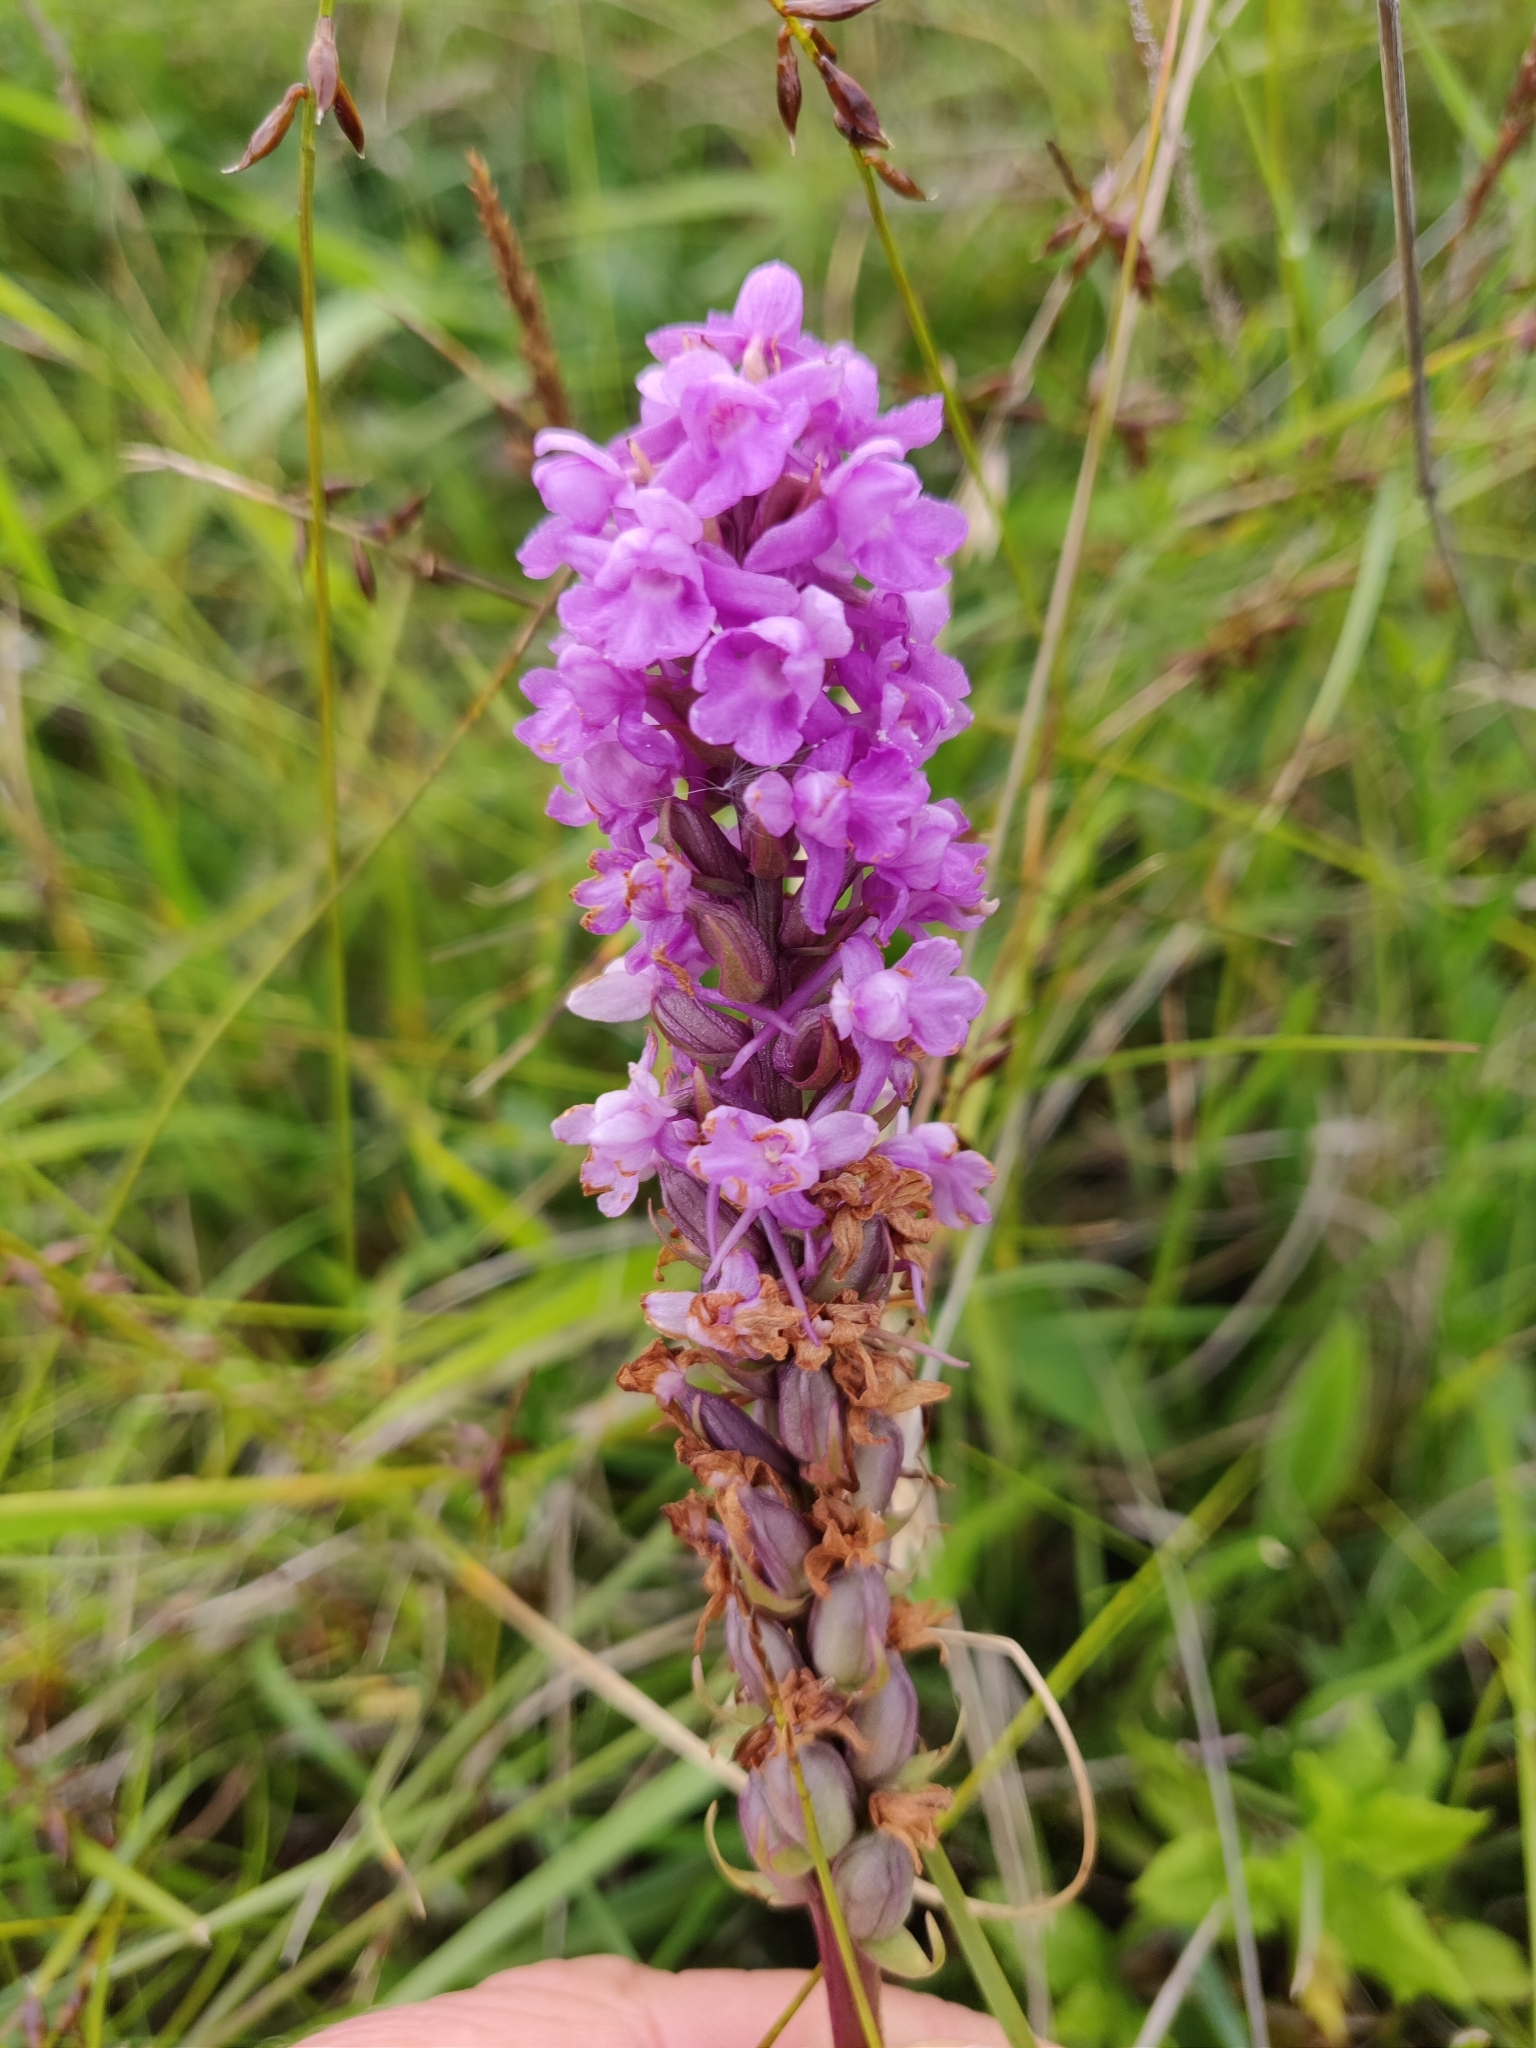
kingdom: Plantae
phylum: Tracheophyta
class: Liliopsida
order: Asparagales
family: Orchidaceae
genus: Gymnadenia
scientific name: Gymnadenia conopsea
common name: Fragrant orchid
